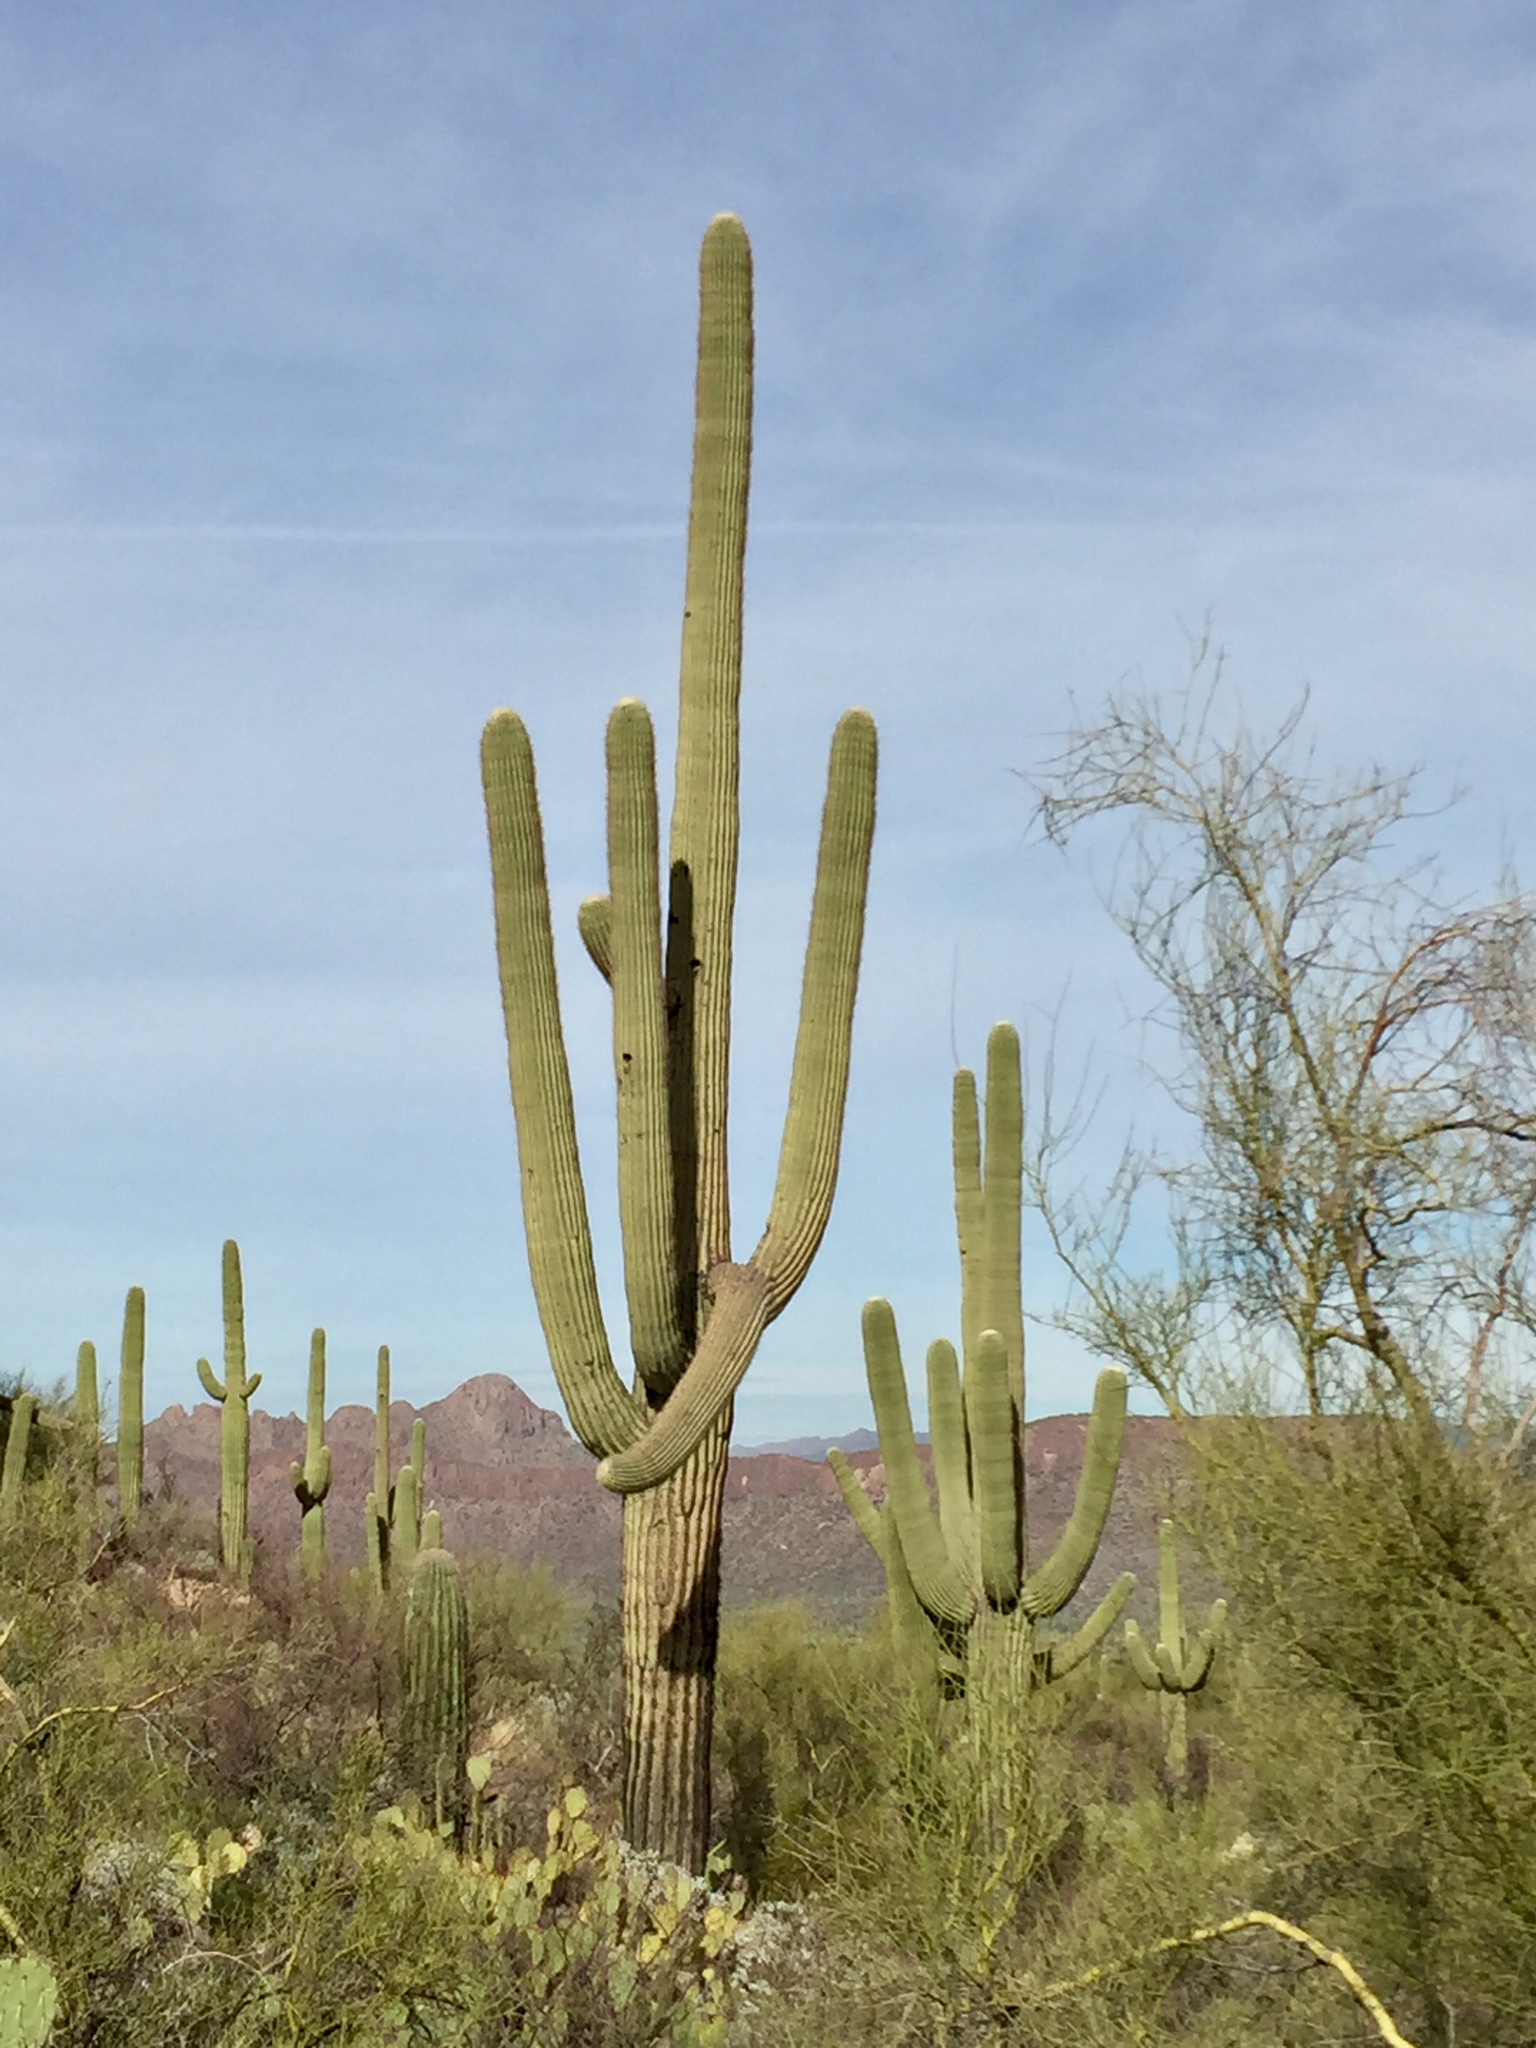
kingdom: Plantae
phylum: Tracheophyta
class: Magnoliopsida
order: Caryophyllales
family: Cactaceae
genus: Carnegiea
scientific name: Carnegiea gigantea
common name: Saguaro
